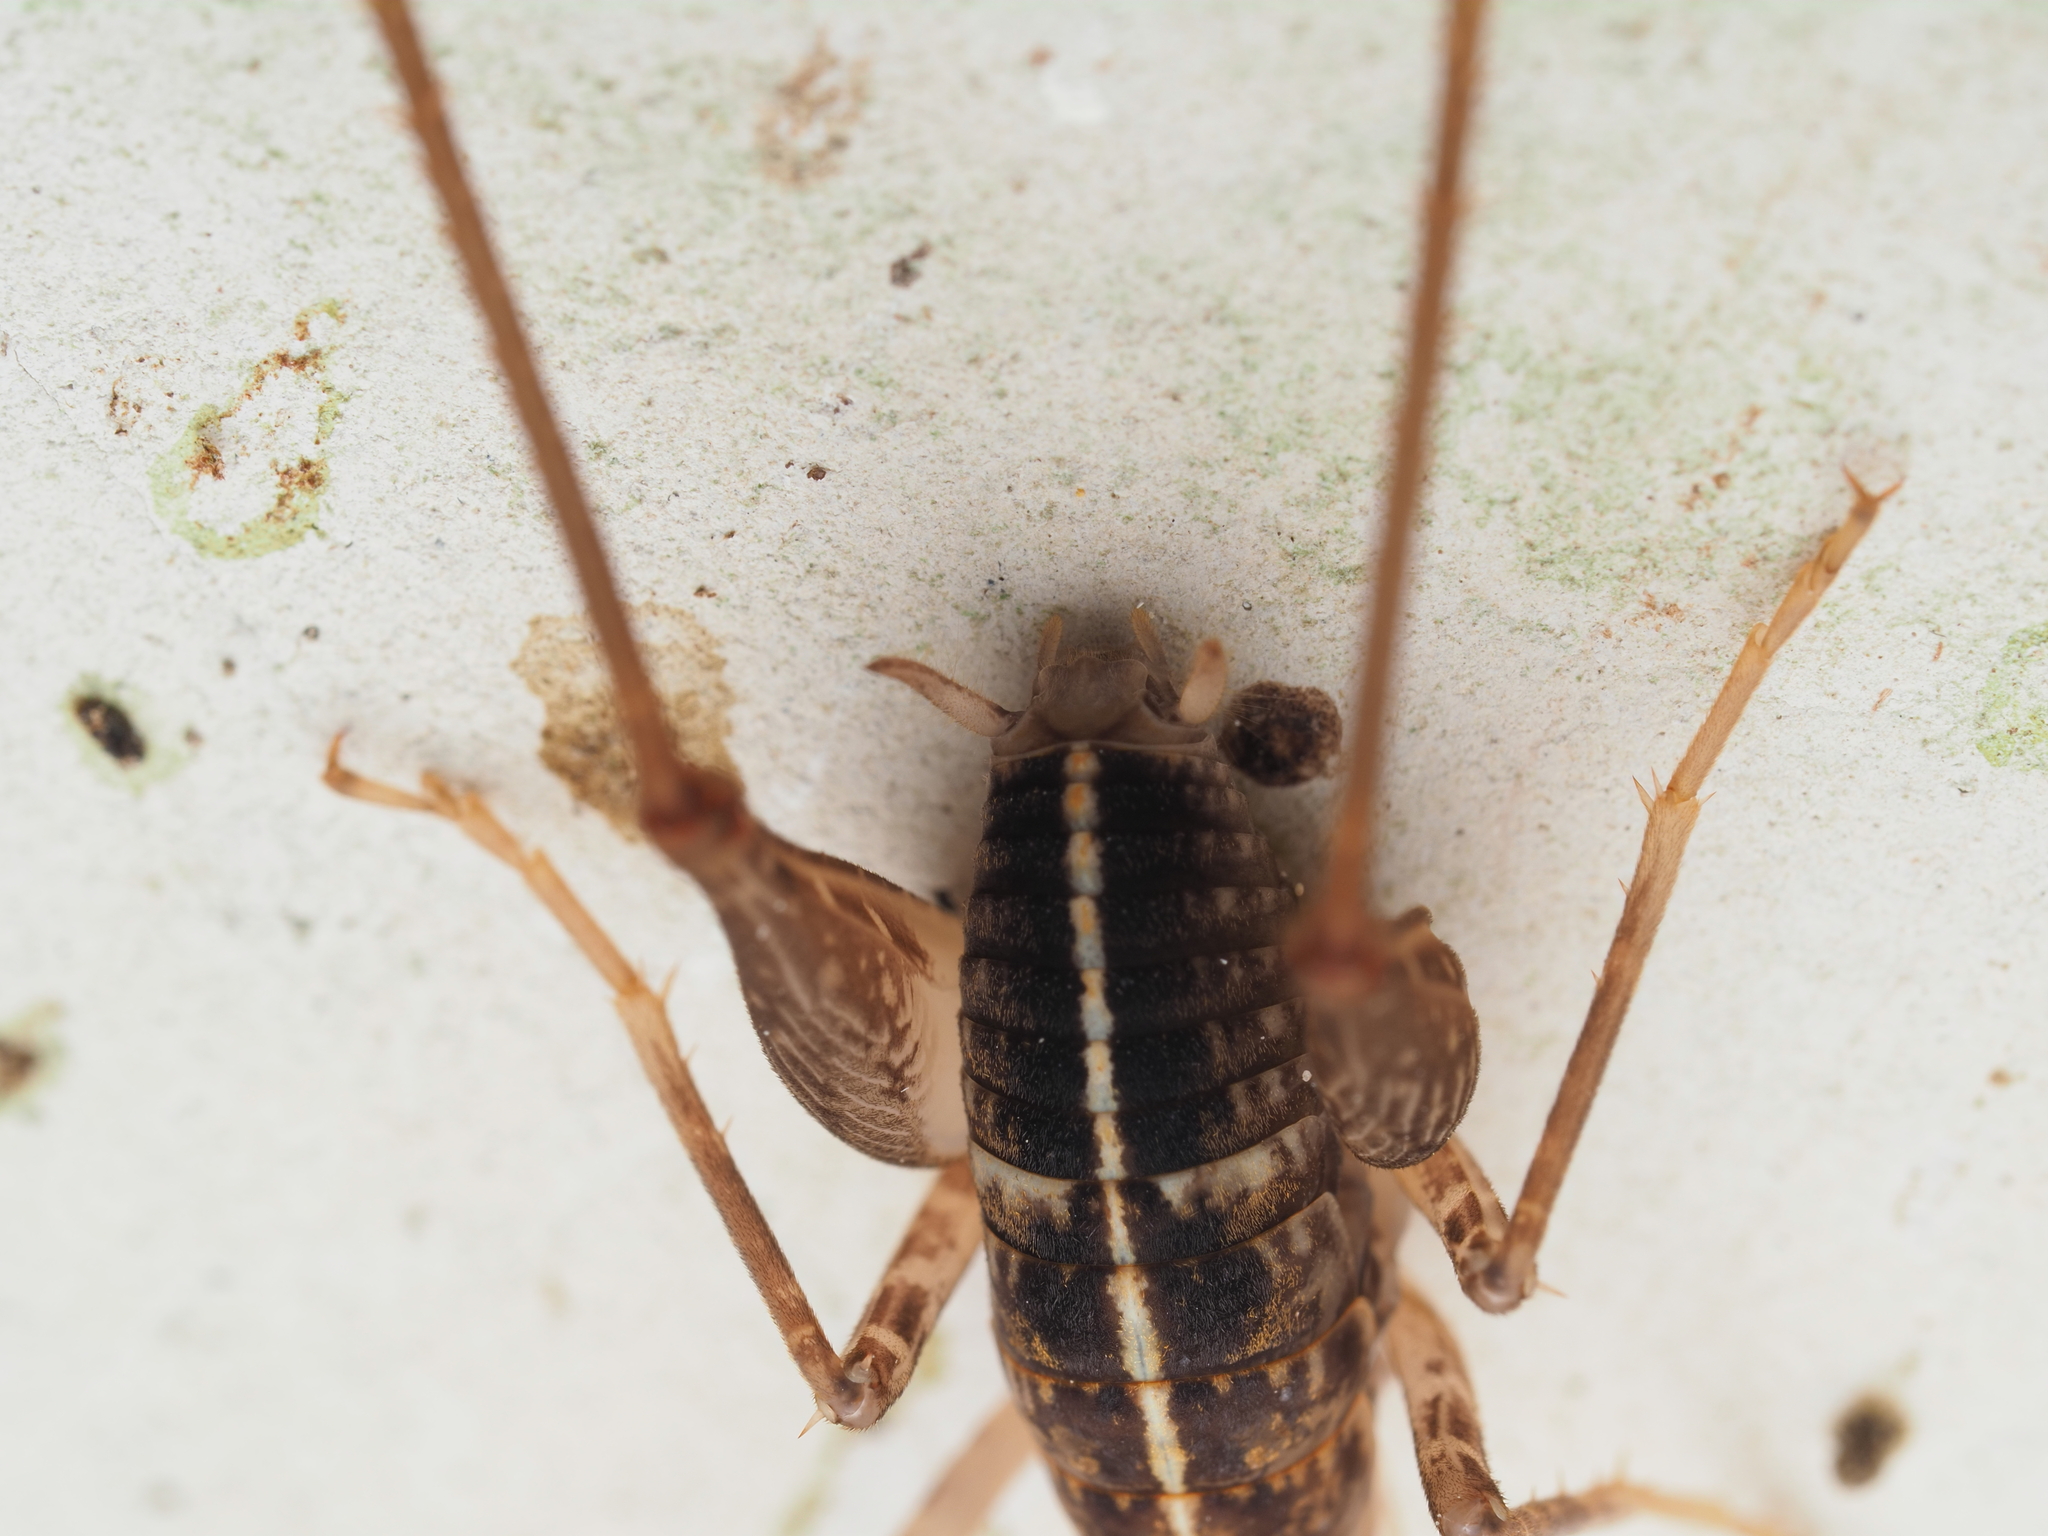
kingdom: Animalia
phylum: Arthropoda
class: Insecta
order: Orthoptera
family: Rhaphidophoridae
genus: Pleioplectron
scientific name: Pleioplectron simplex
